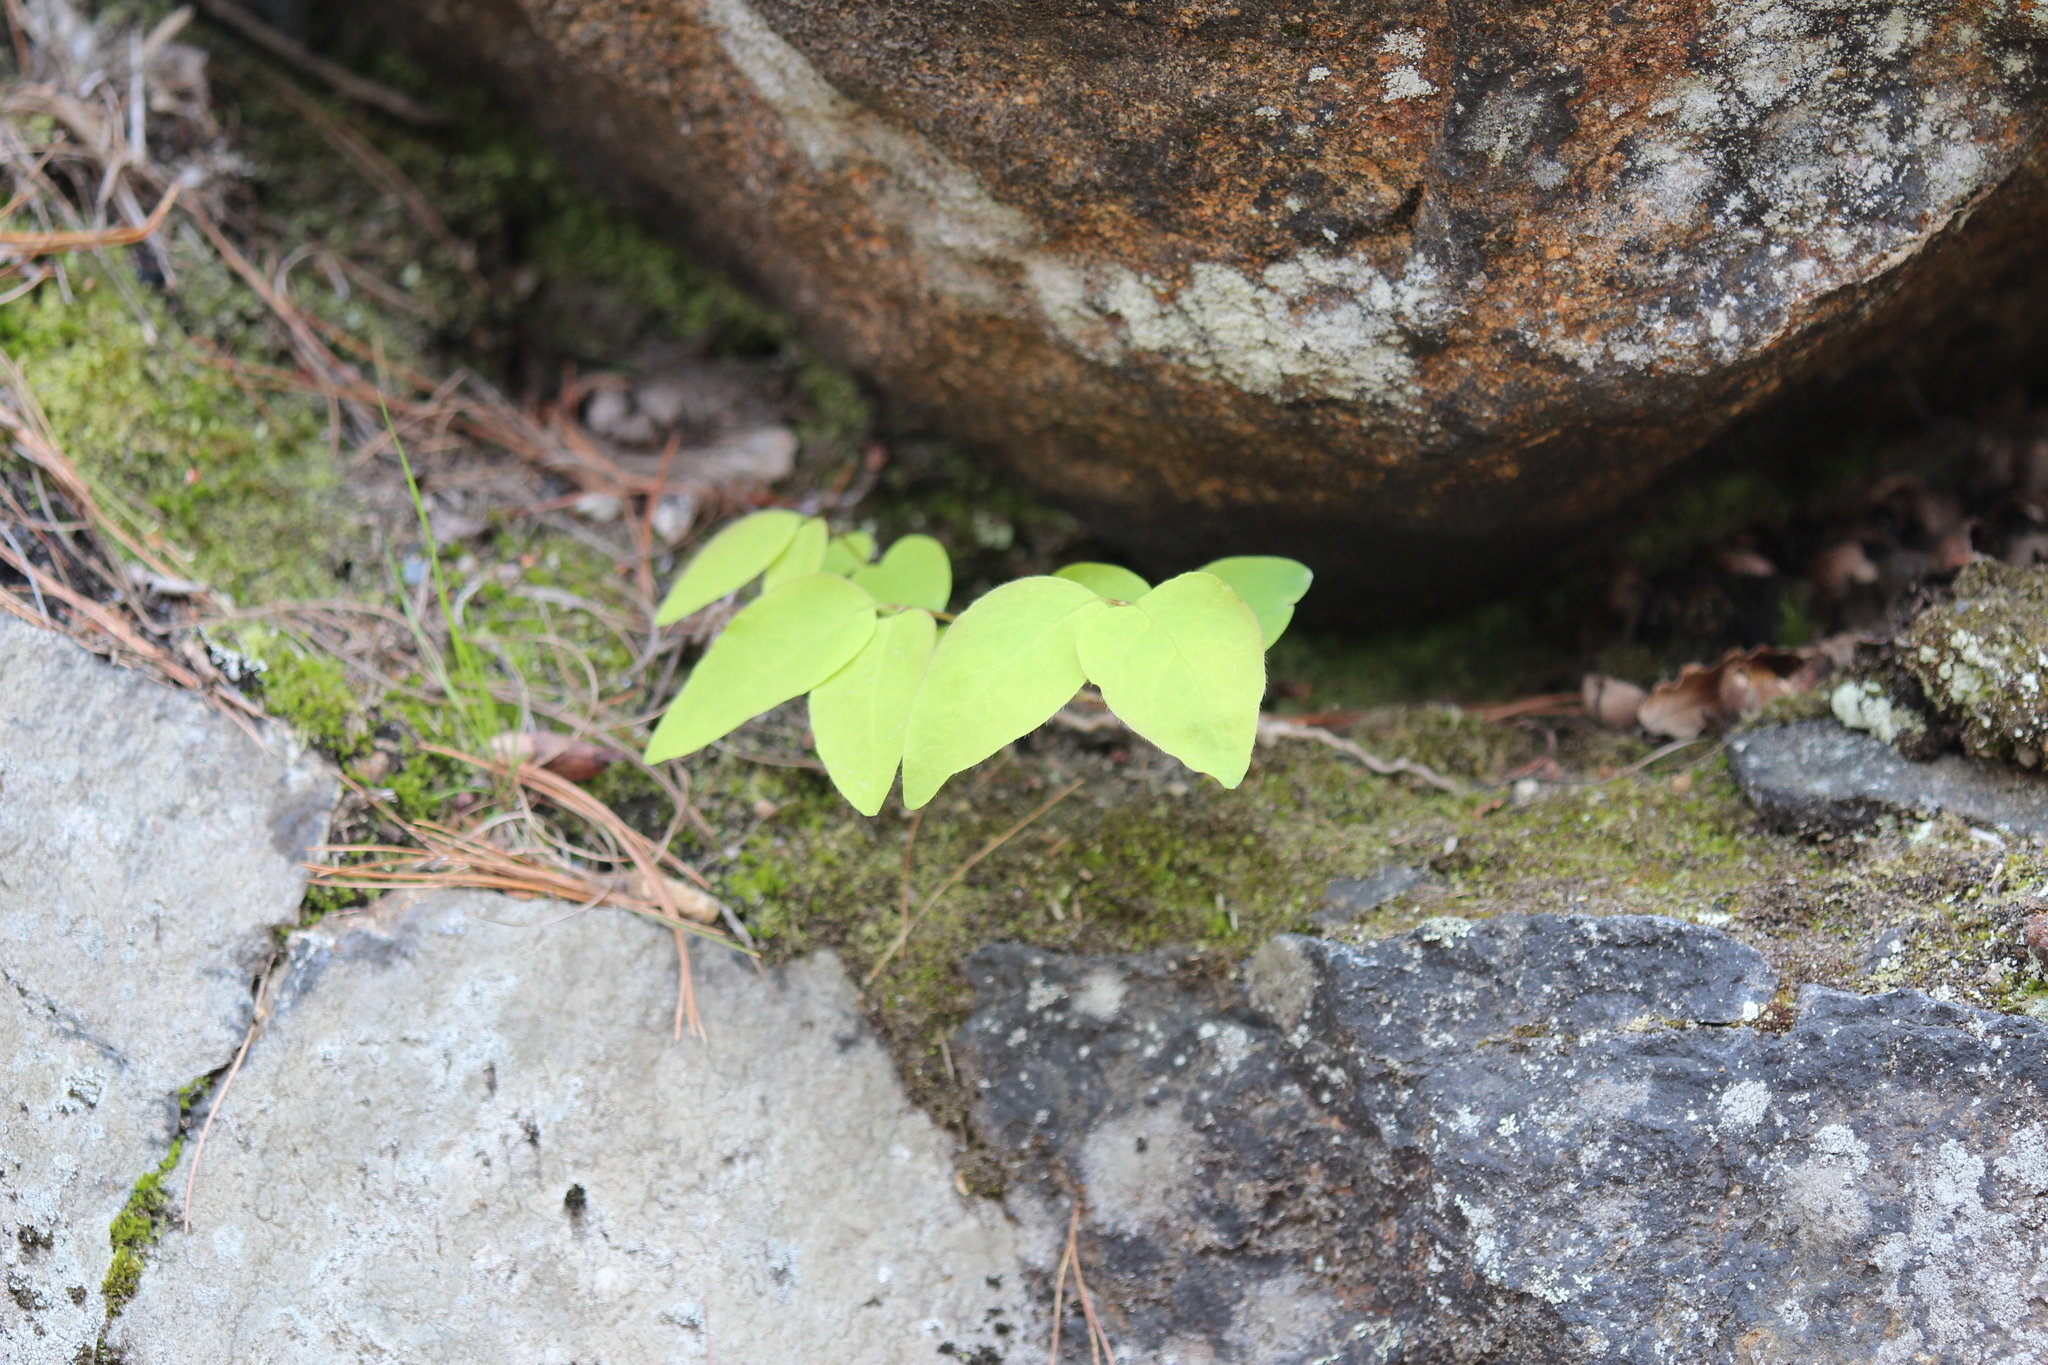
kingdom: Plantae
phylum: Tracheophyta
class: Magnoliopsida
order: Dipsacales
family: Caprifoliaceae
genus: Lonicera
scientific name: Lonicera canadensis
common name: American fly-honeysuckle
